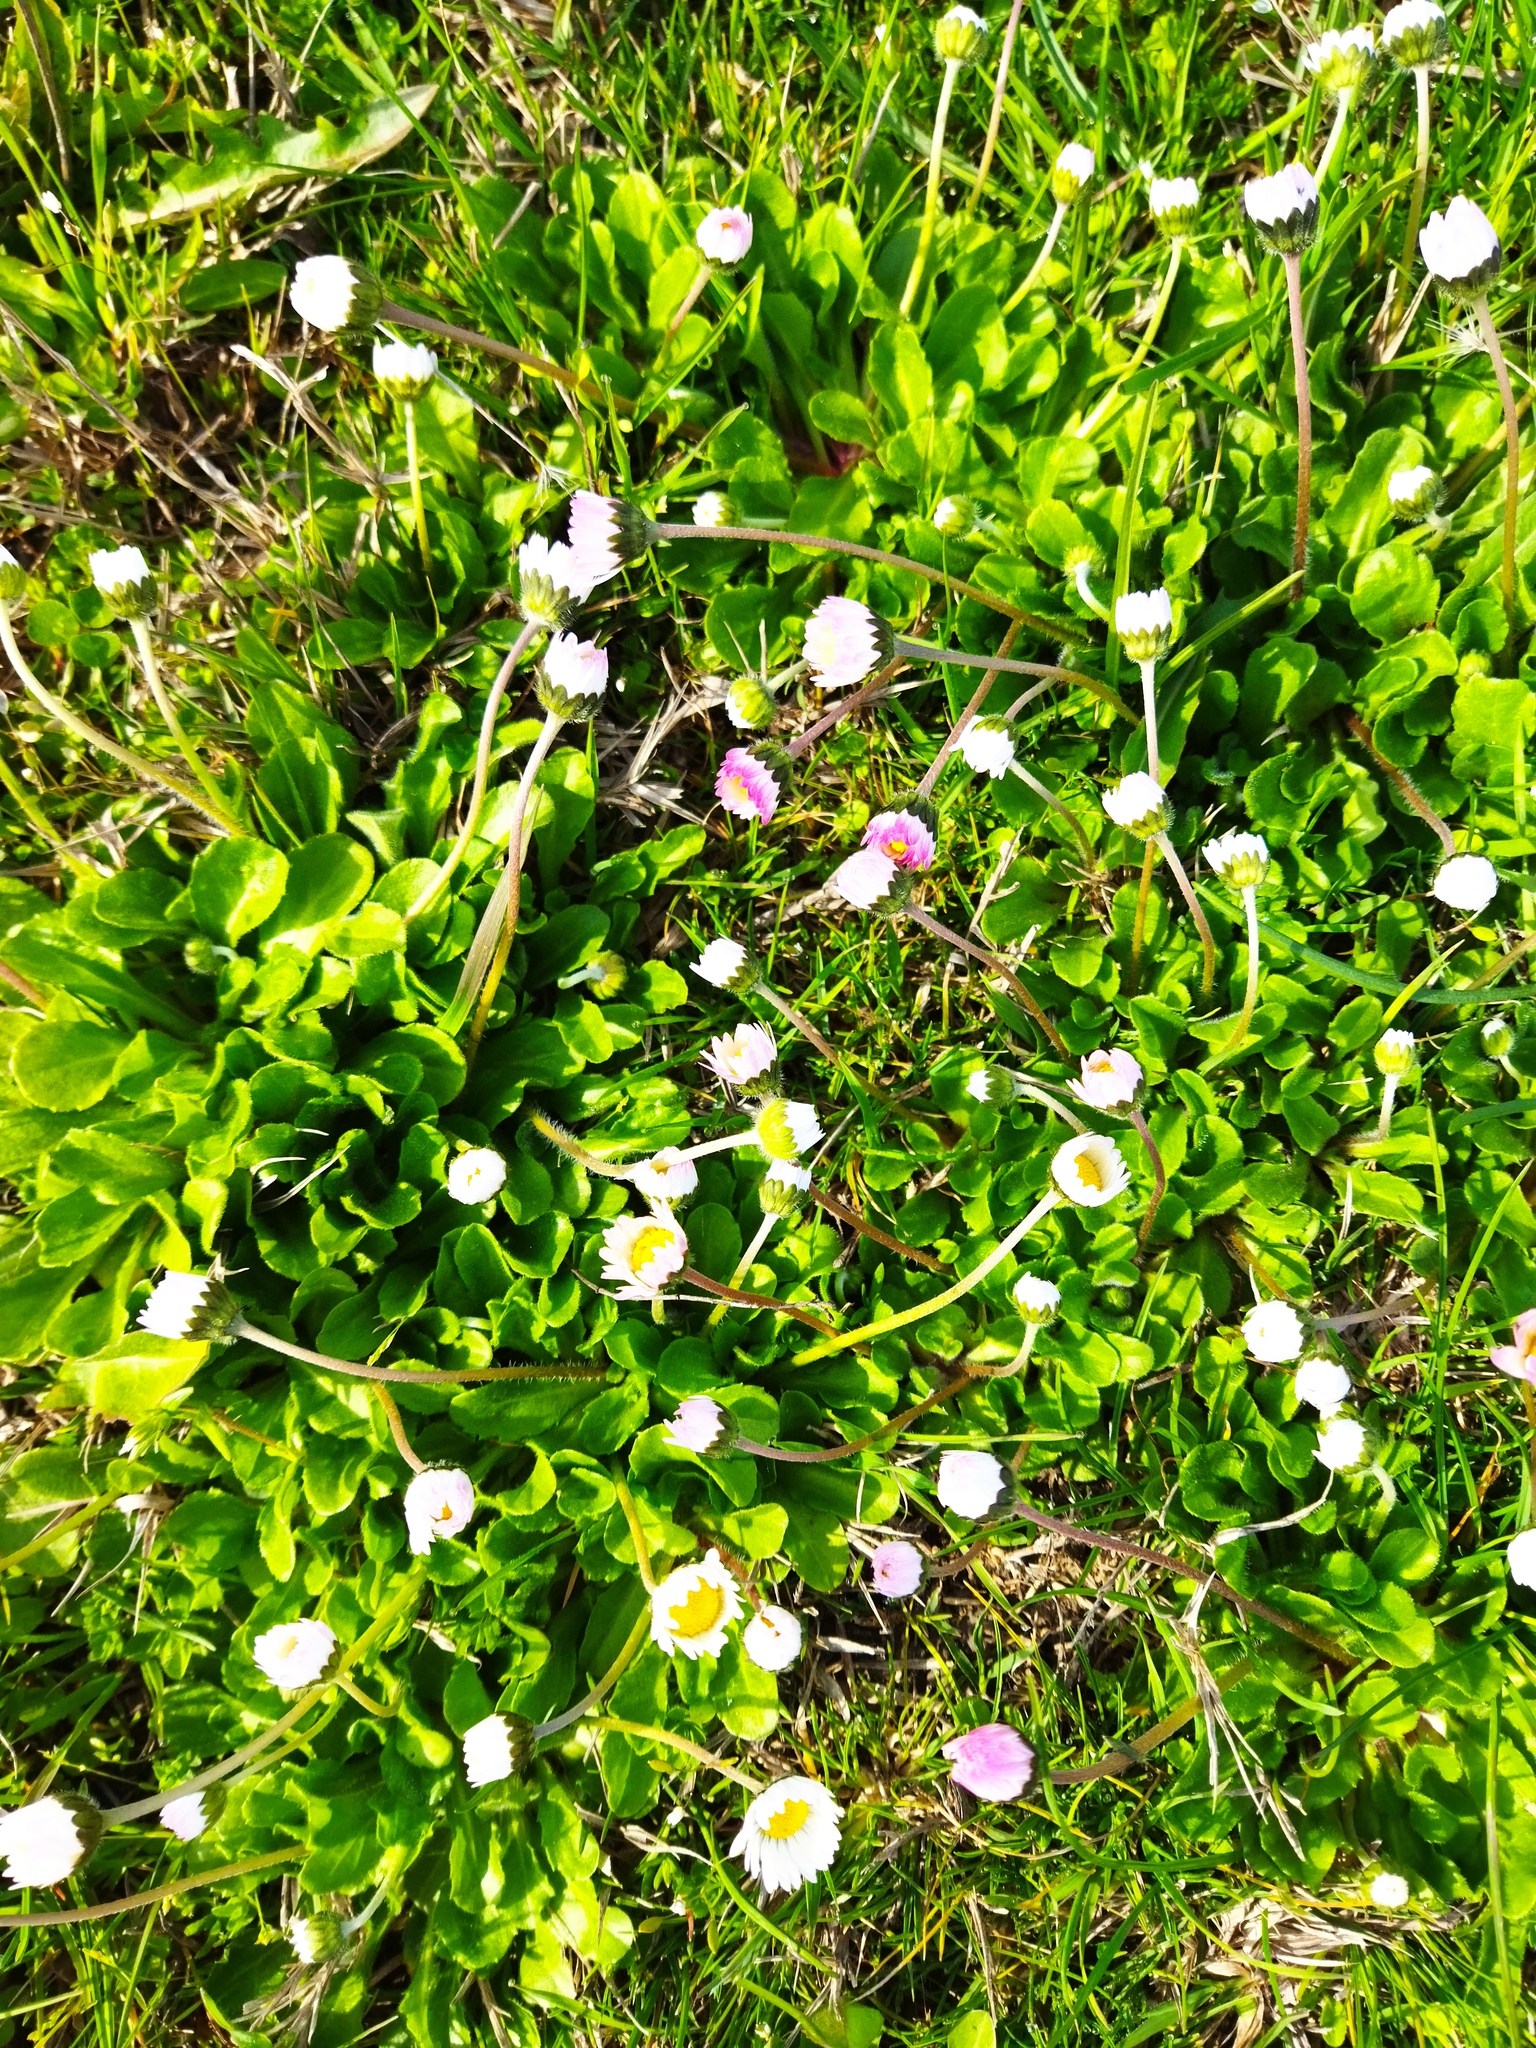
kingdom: Plantae
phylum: Tracheophyta
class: Magnoliopsida
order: Asterales
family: Asteraceae
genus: Bellis
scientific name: Bellis perennis
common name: Lawndaisy
